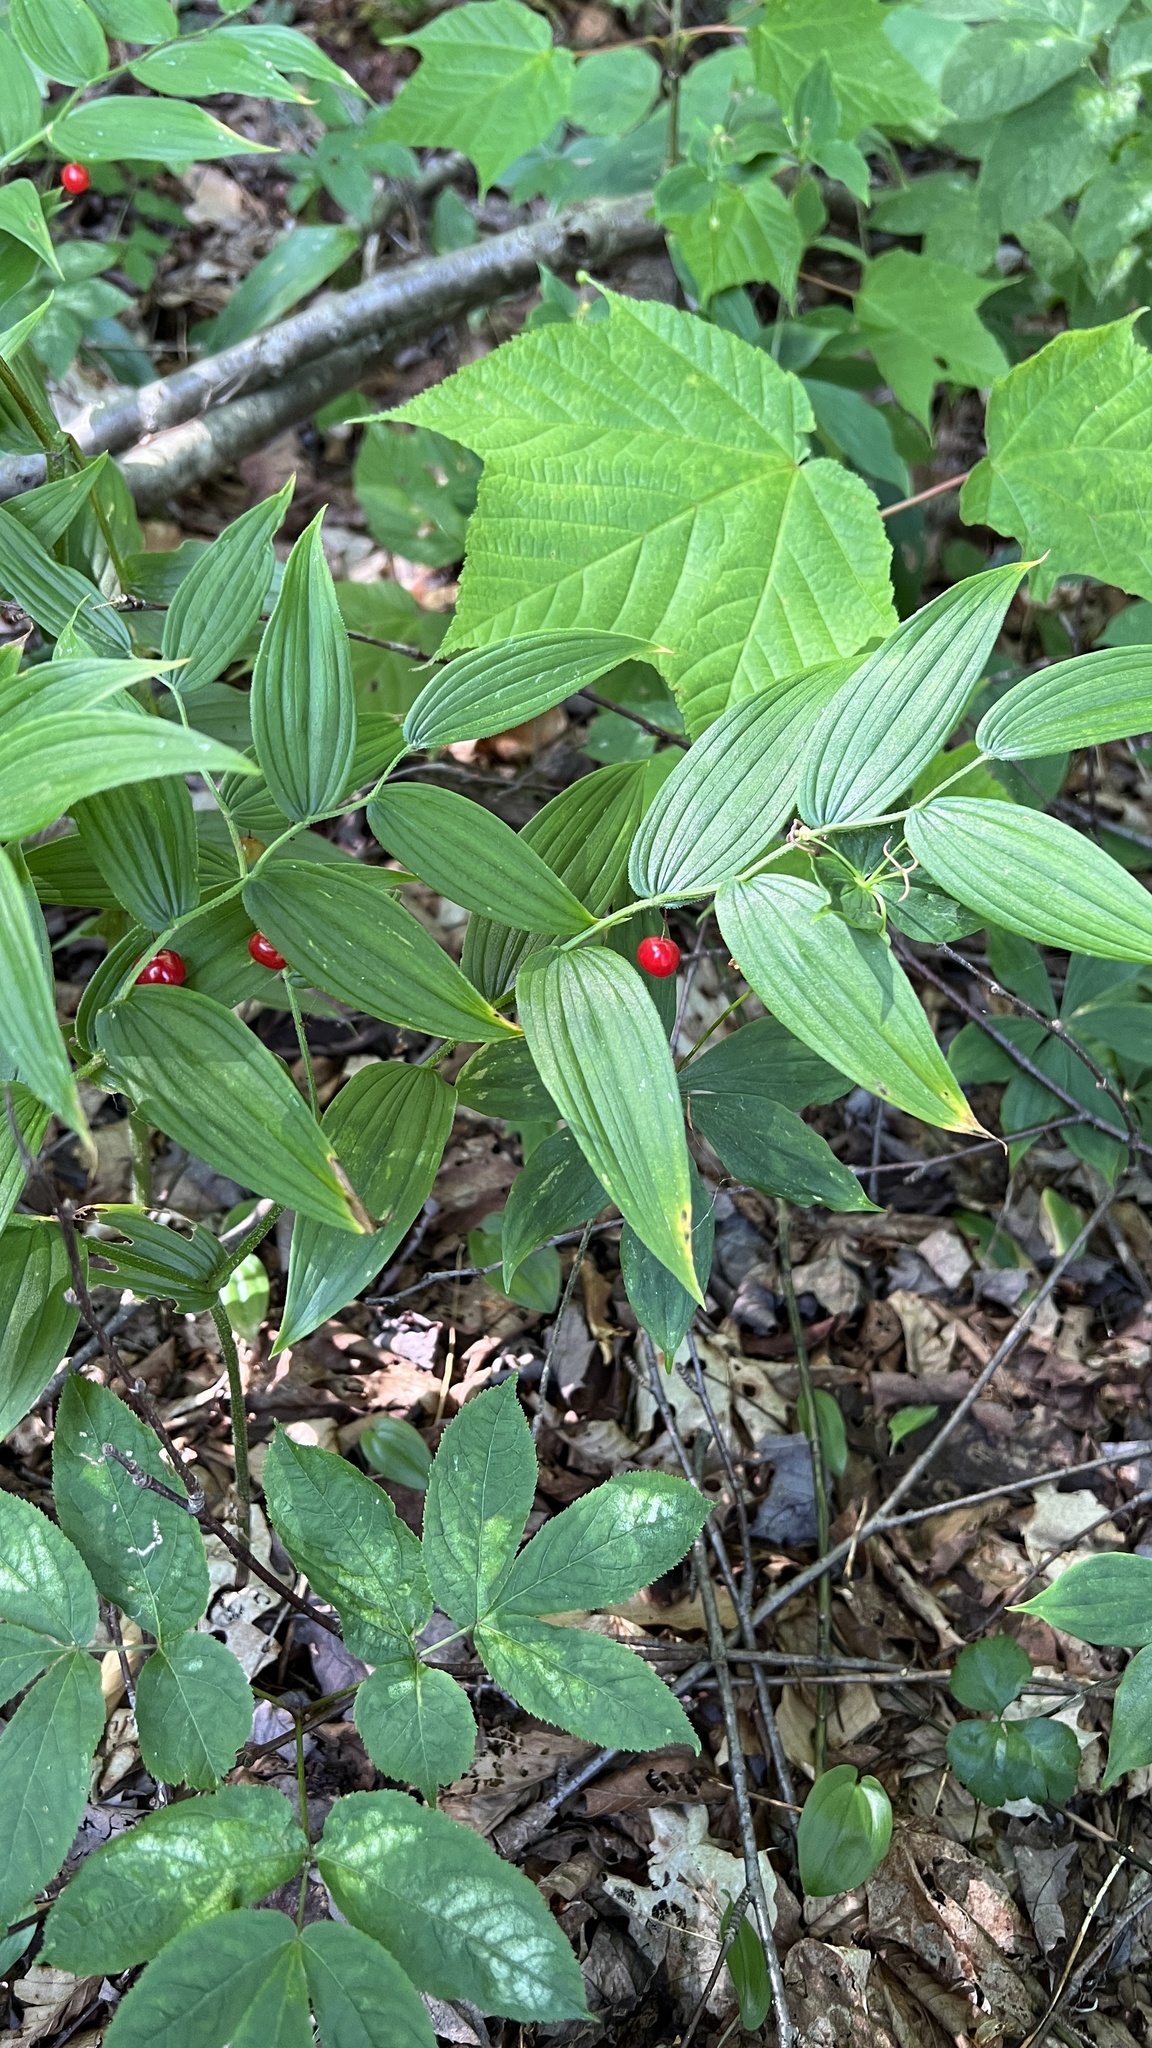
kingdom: Plantae
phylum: Tracheophyta
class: Liliopsida
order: Liliales
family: Liliaceae
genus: Streptopus
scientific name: Streptopus lanceolatus
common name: Rose mandarin
